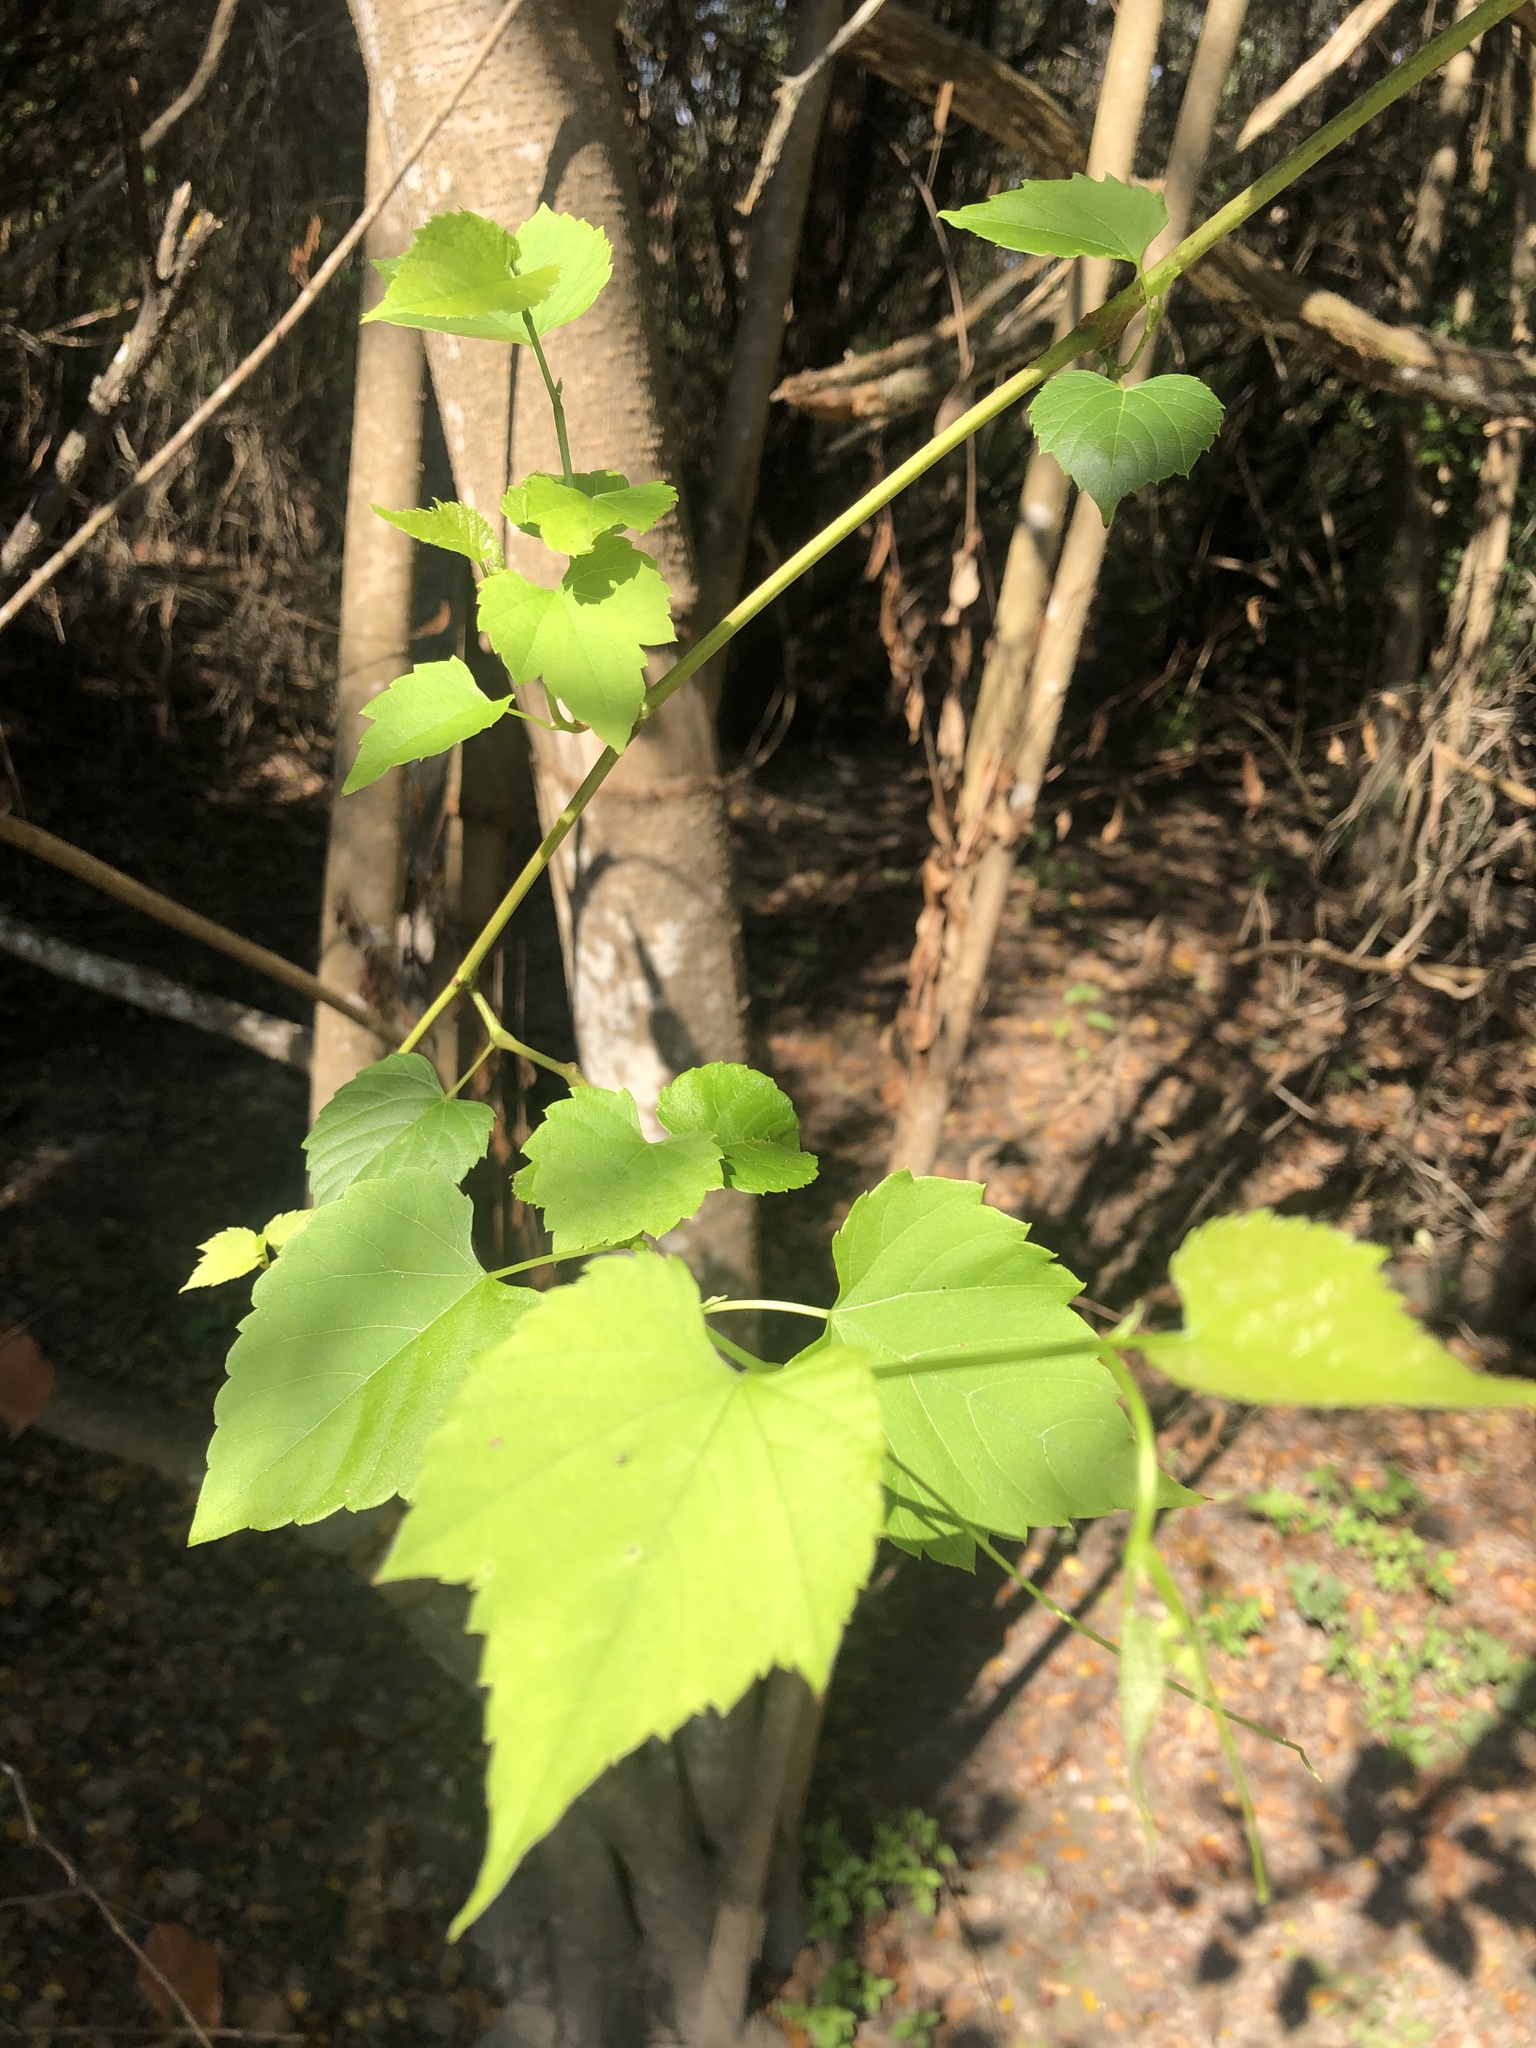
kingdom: Plantae
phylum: Tracheophyta
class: Magnoliopsida
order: Vitales
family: Vitaceae
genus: Ampelopsis
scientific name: Ampelopsis cordata
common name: Heart-leaf ampelopsis
